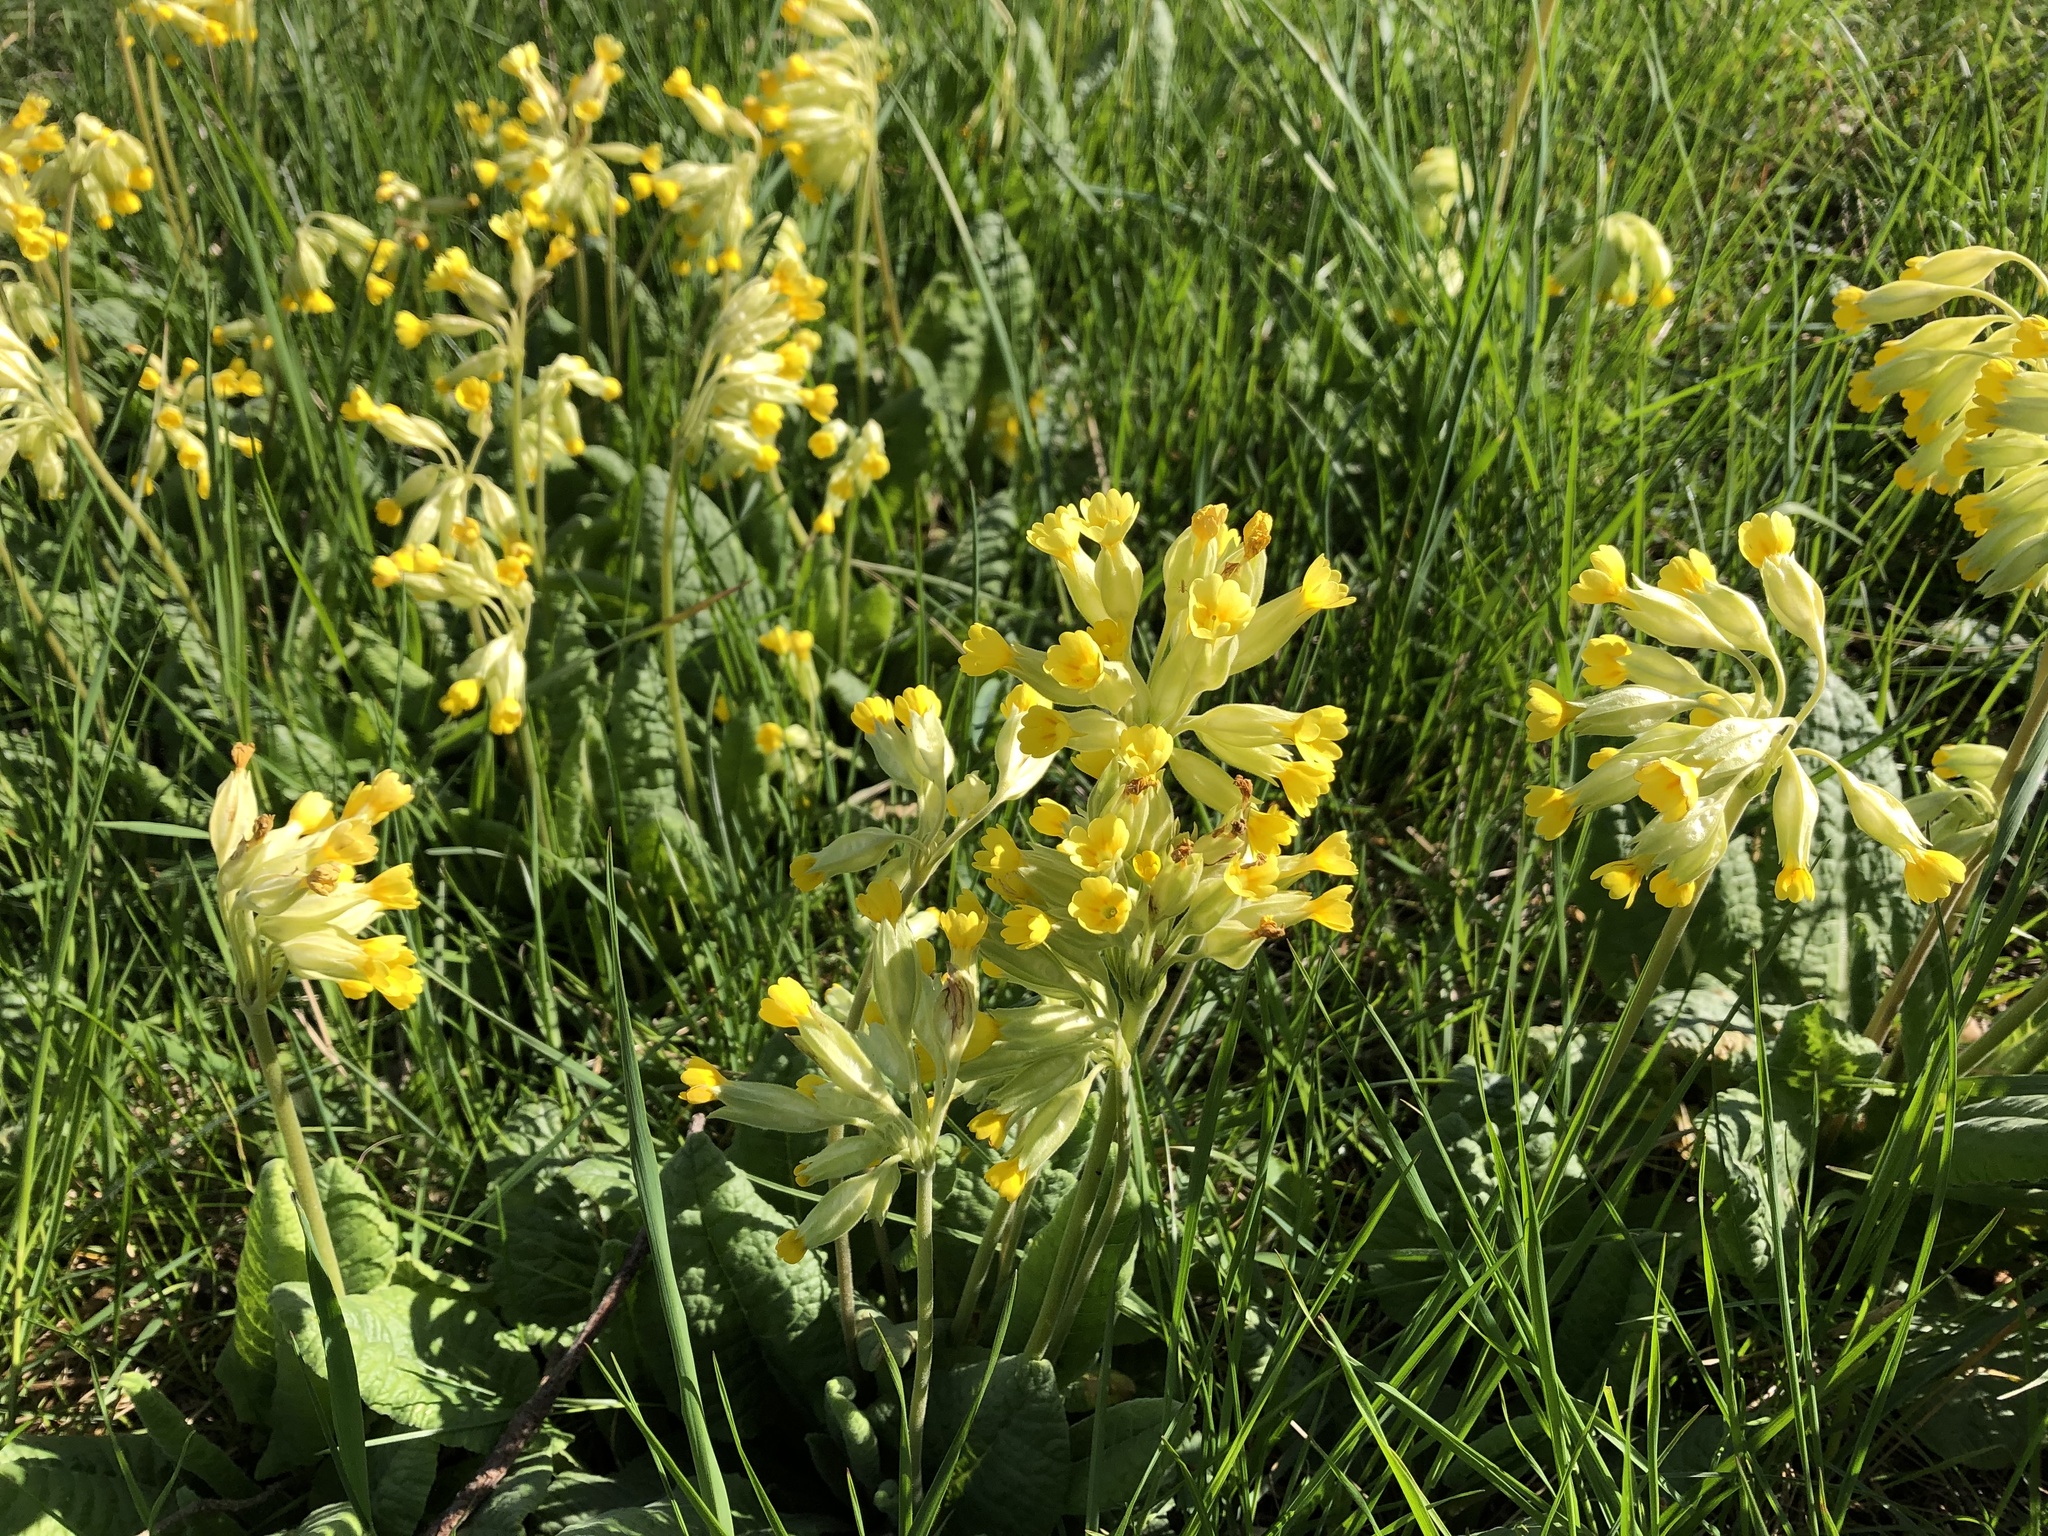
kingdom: Plantae
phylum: Tracheophyta
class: Magnoliopsida
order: Ericales
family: Primulaceae
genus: Primula
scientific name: Primula veris
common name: Cowslip
